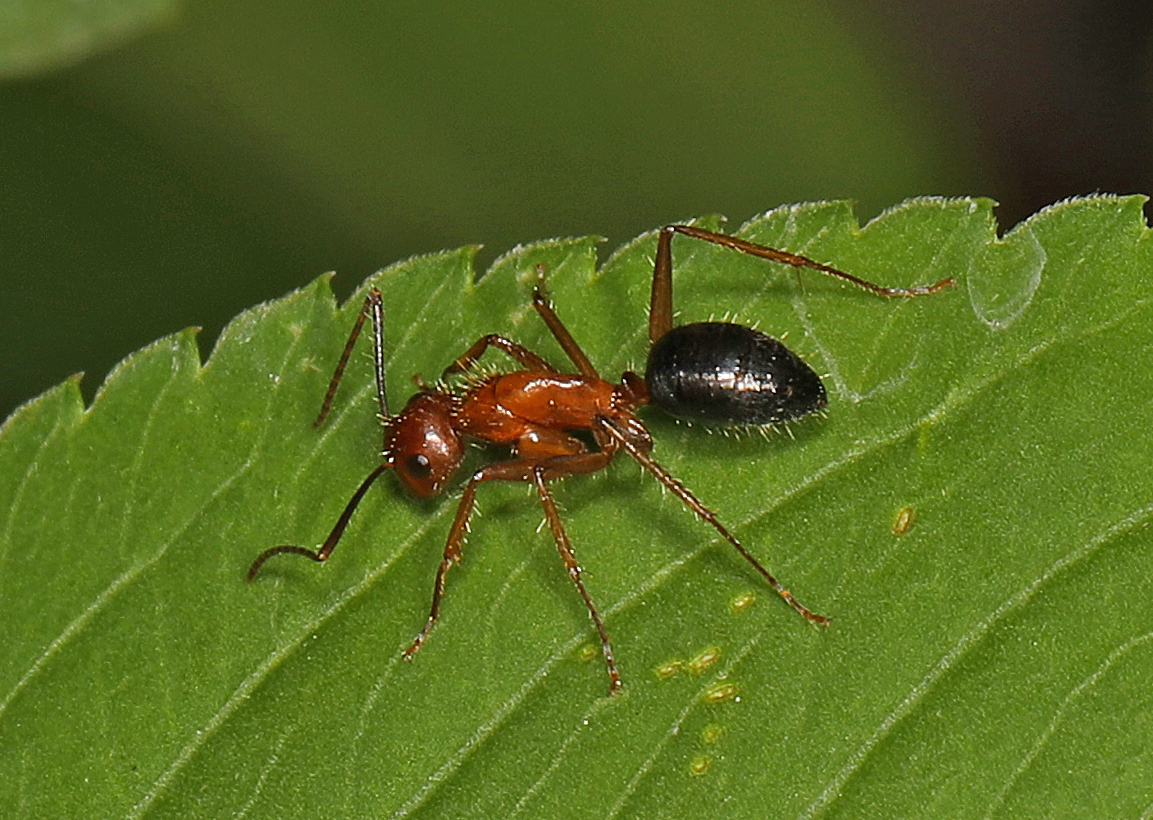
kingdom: Animalia
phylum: Arthropoda
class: Insecta
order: Hymenoptera
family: Formicidae
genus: Camponotus
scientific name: Camponotus floridanus
